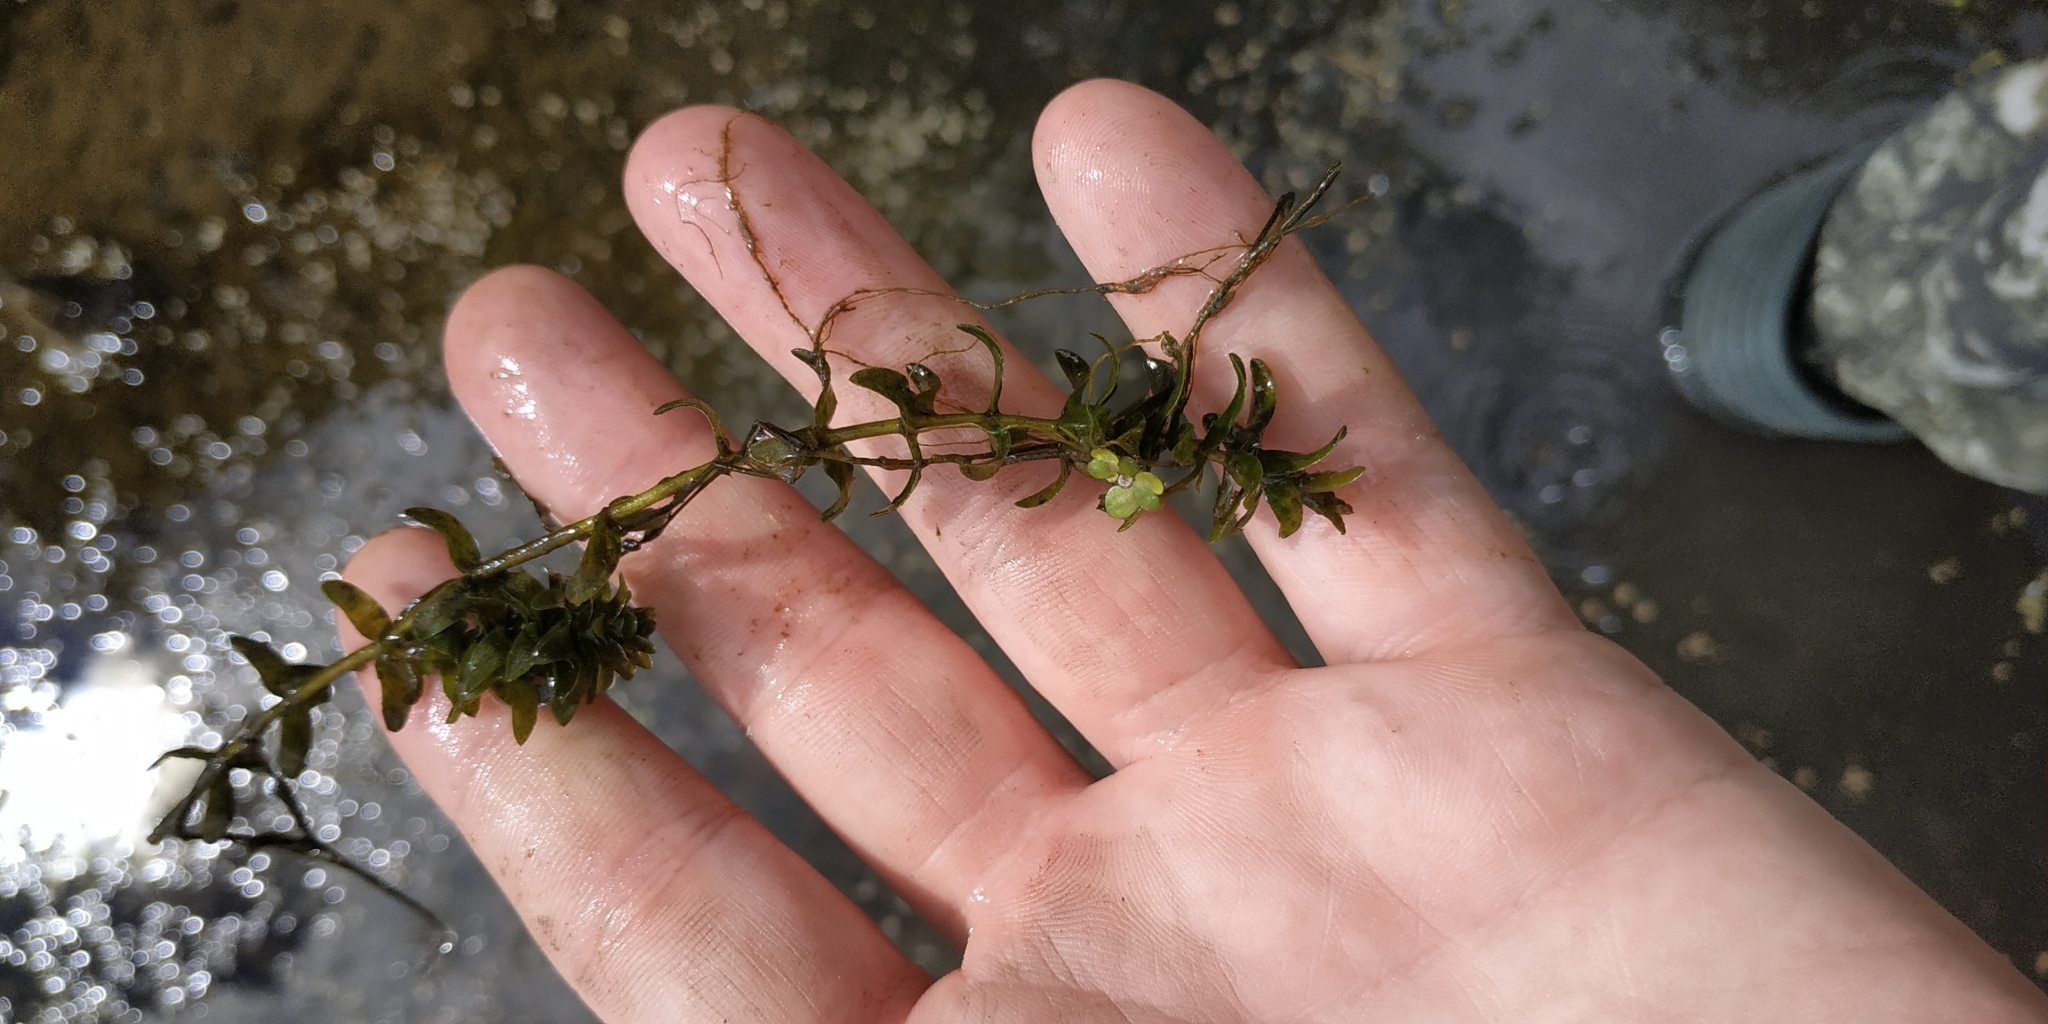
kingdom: Plantae
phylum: Tracheophyta
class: Liliopsida
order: Alismatales
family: Hydrocharitaceae
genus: Elodea
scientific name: Elodea canadensis
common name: Canadian waterweed
